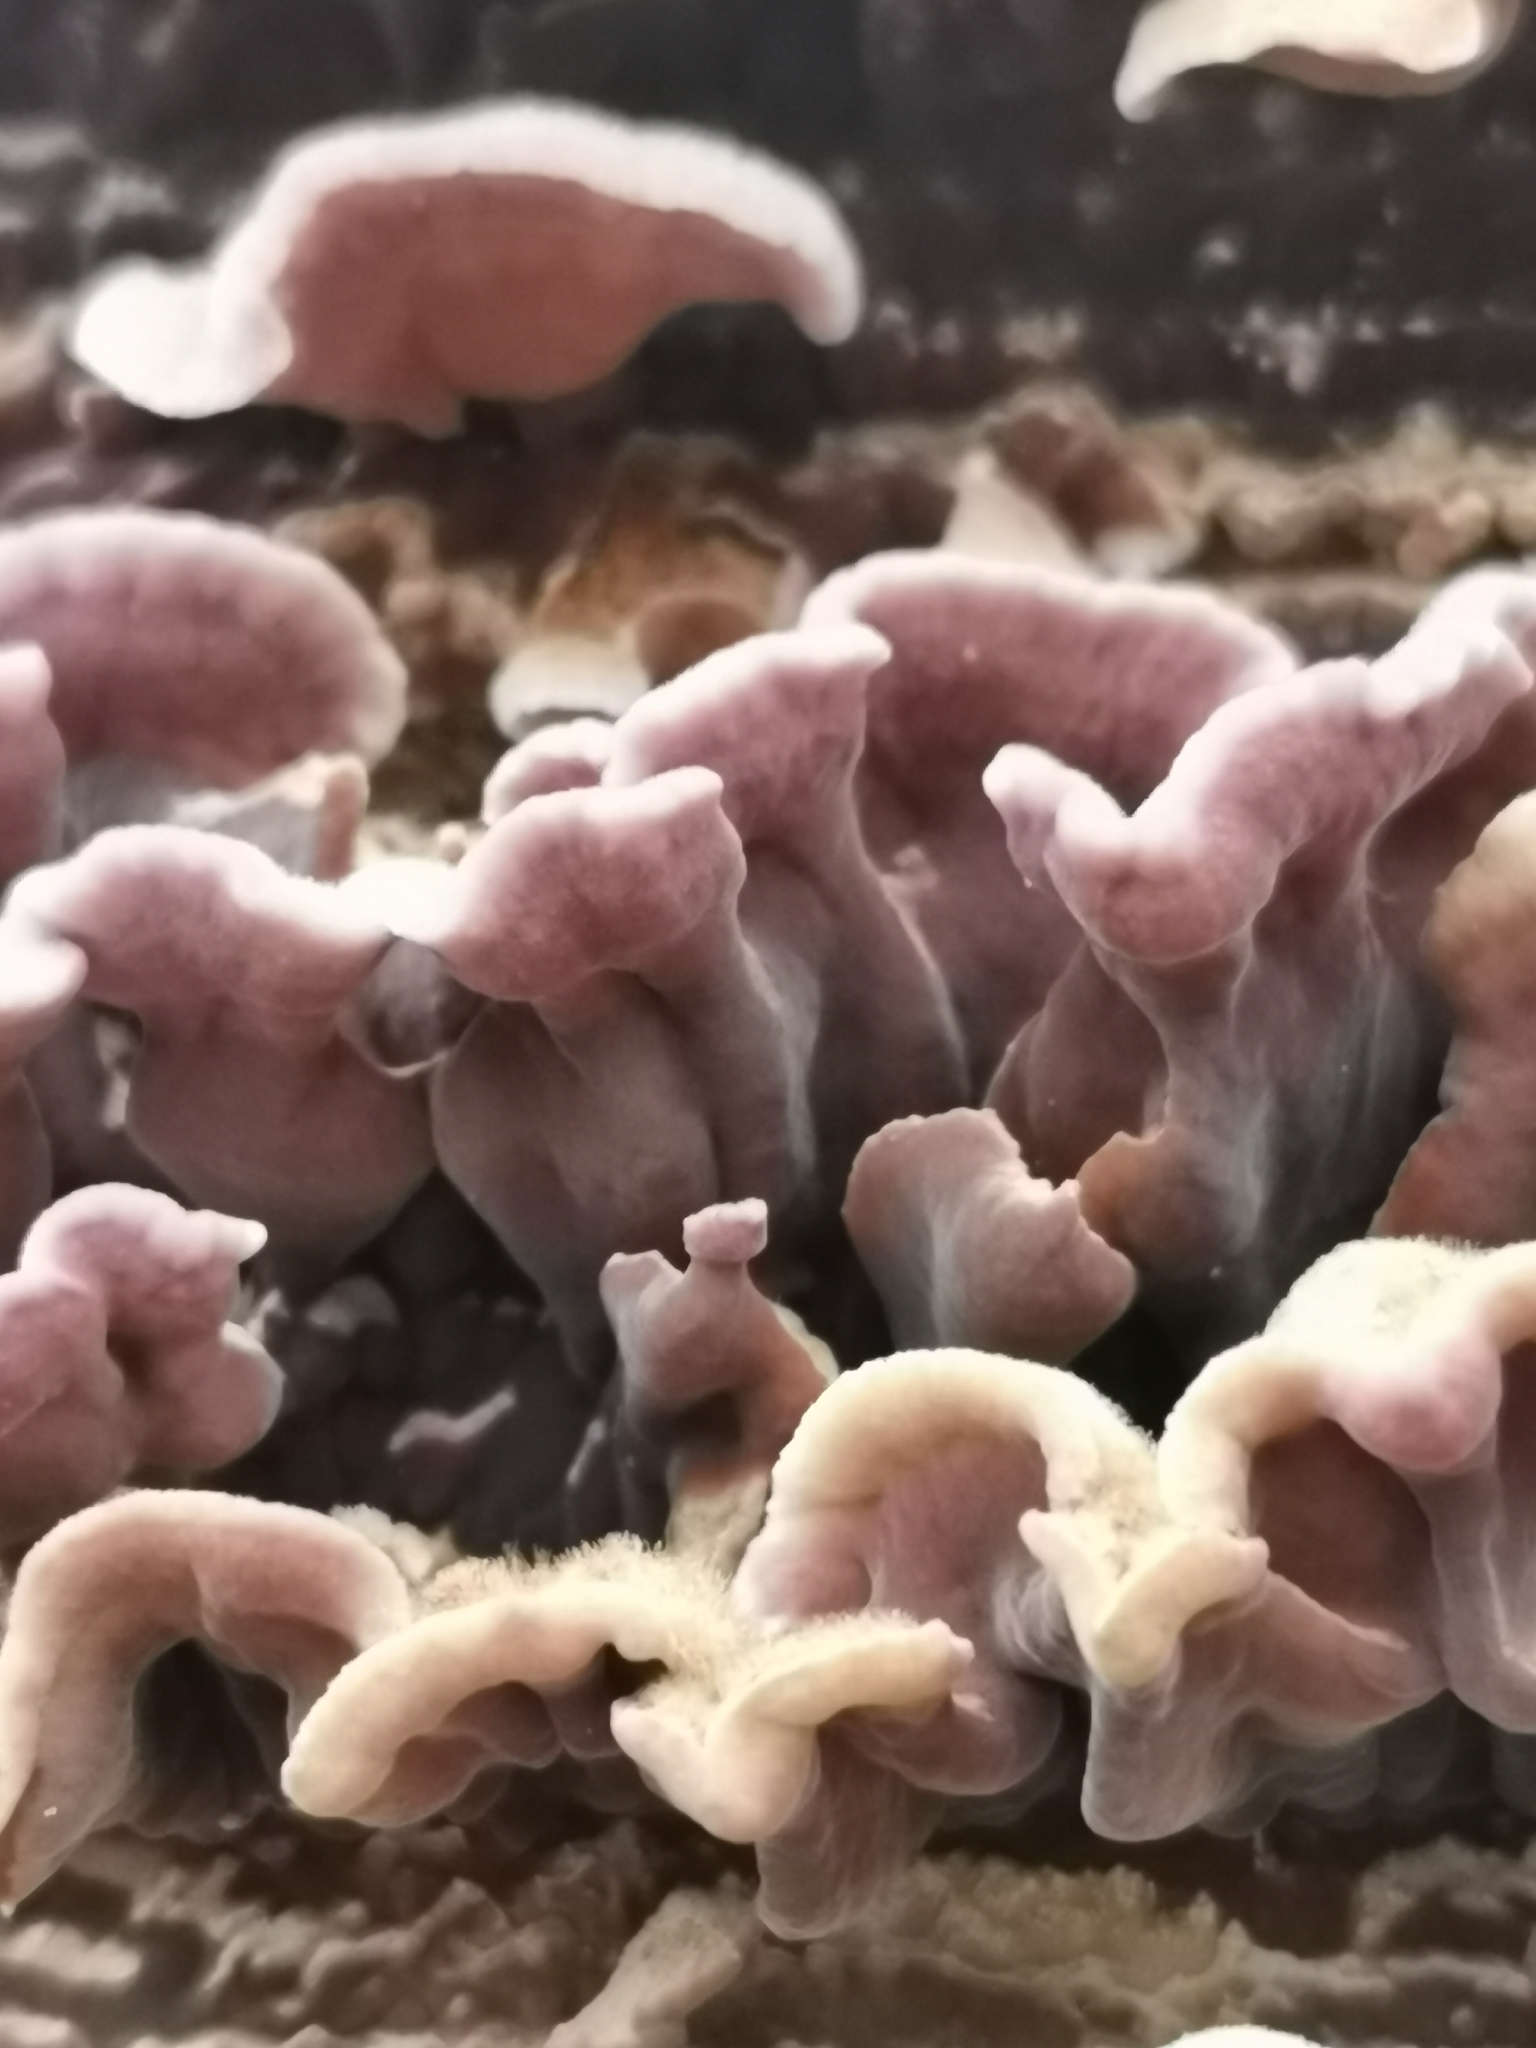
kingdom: Fungi
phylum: Basidiomycota
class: Agaricomycetes
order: Agaricales
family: Cyphellaceae
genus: Chondrostereum
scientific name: Chondrostereum purpureum
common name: Silver leaf disease
